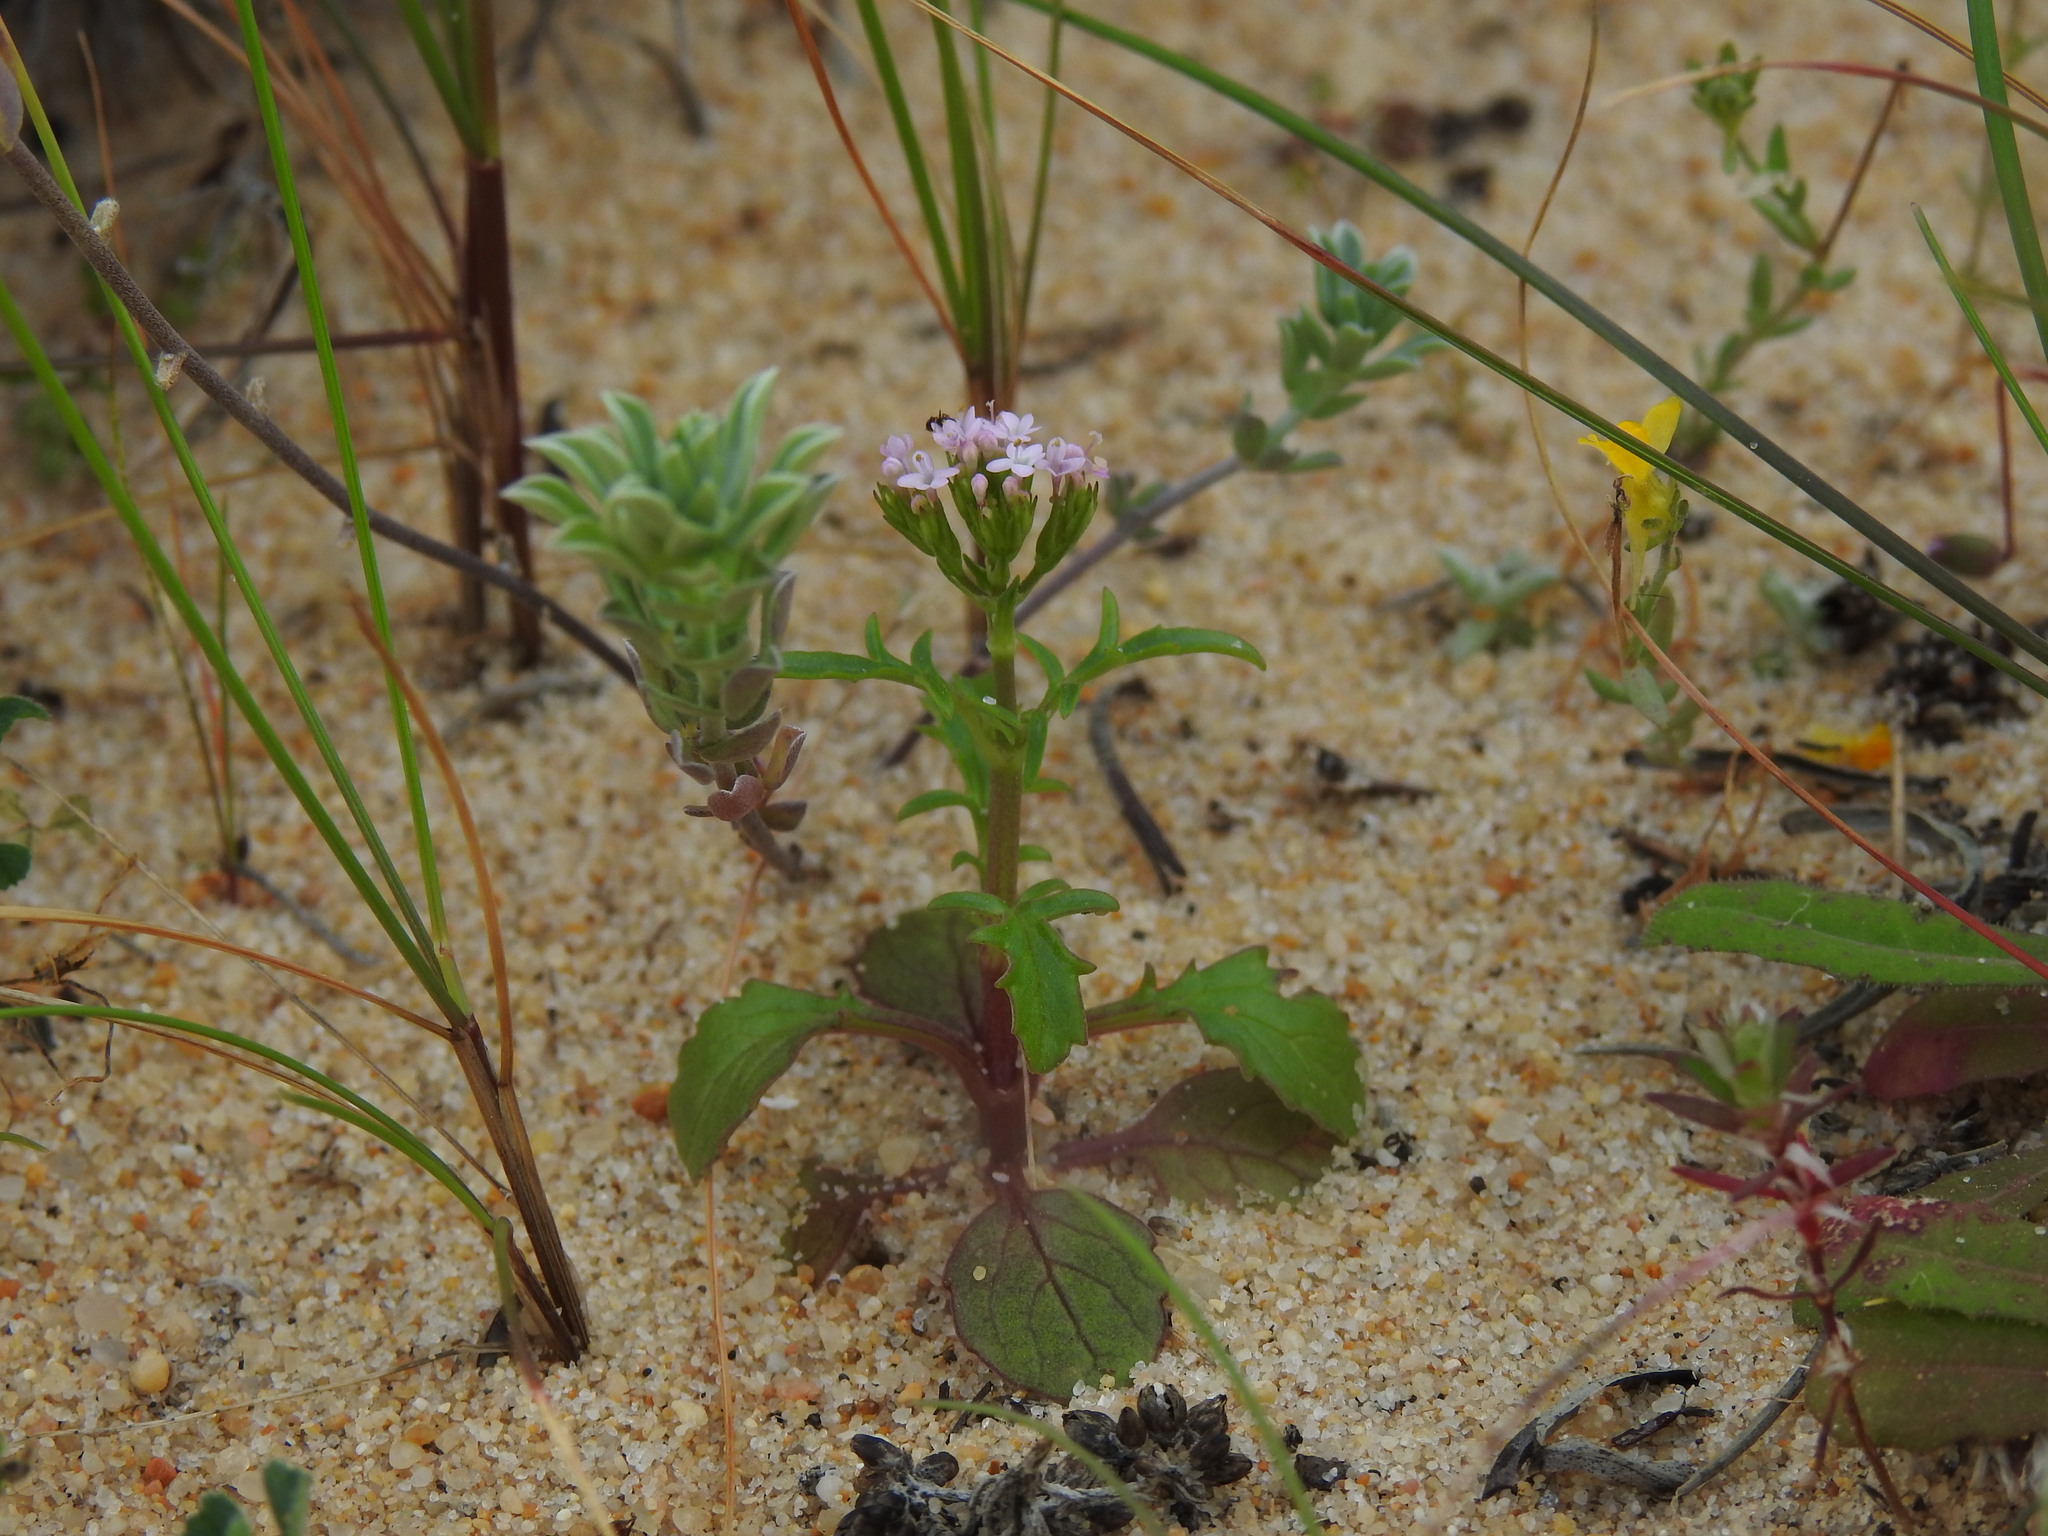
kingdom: Plantae
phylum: Tracheophyta
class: Magnoliopsida
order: Dipsacales
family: Caprifoliaceae
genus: Centranthus
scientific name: Centranthus calcitrapae
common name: Annual valerian
